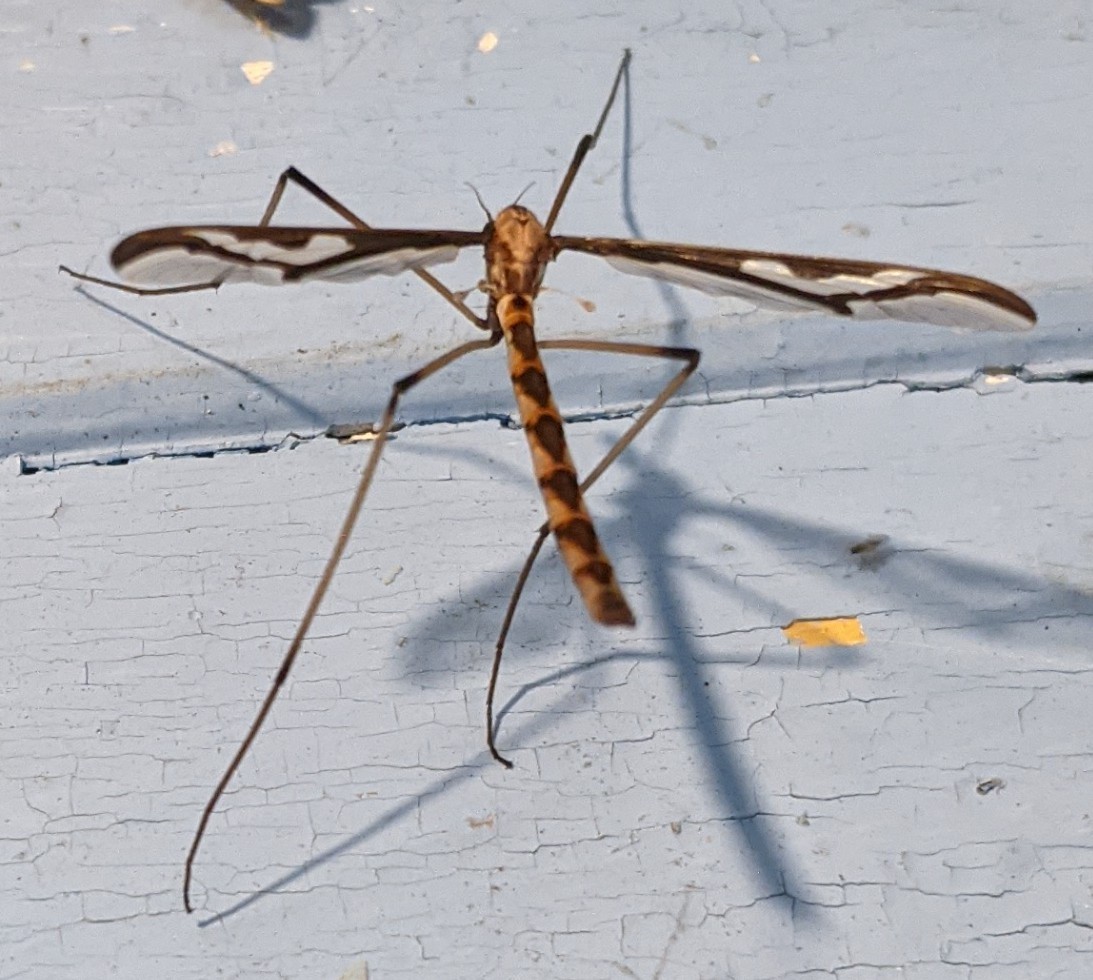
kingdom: Animalia
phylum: Arthropoda
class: Insecta
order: Diptera
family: Pediciidae
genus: Pedicia
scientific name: Pedicia albivitta
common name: Giant eastern crane fly
